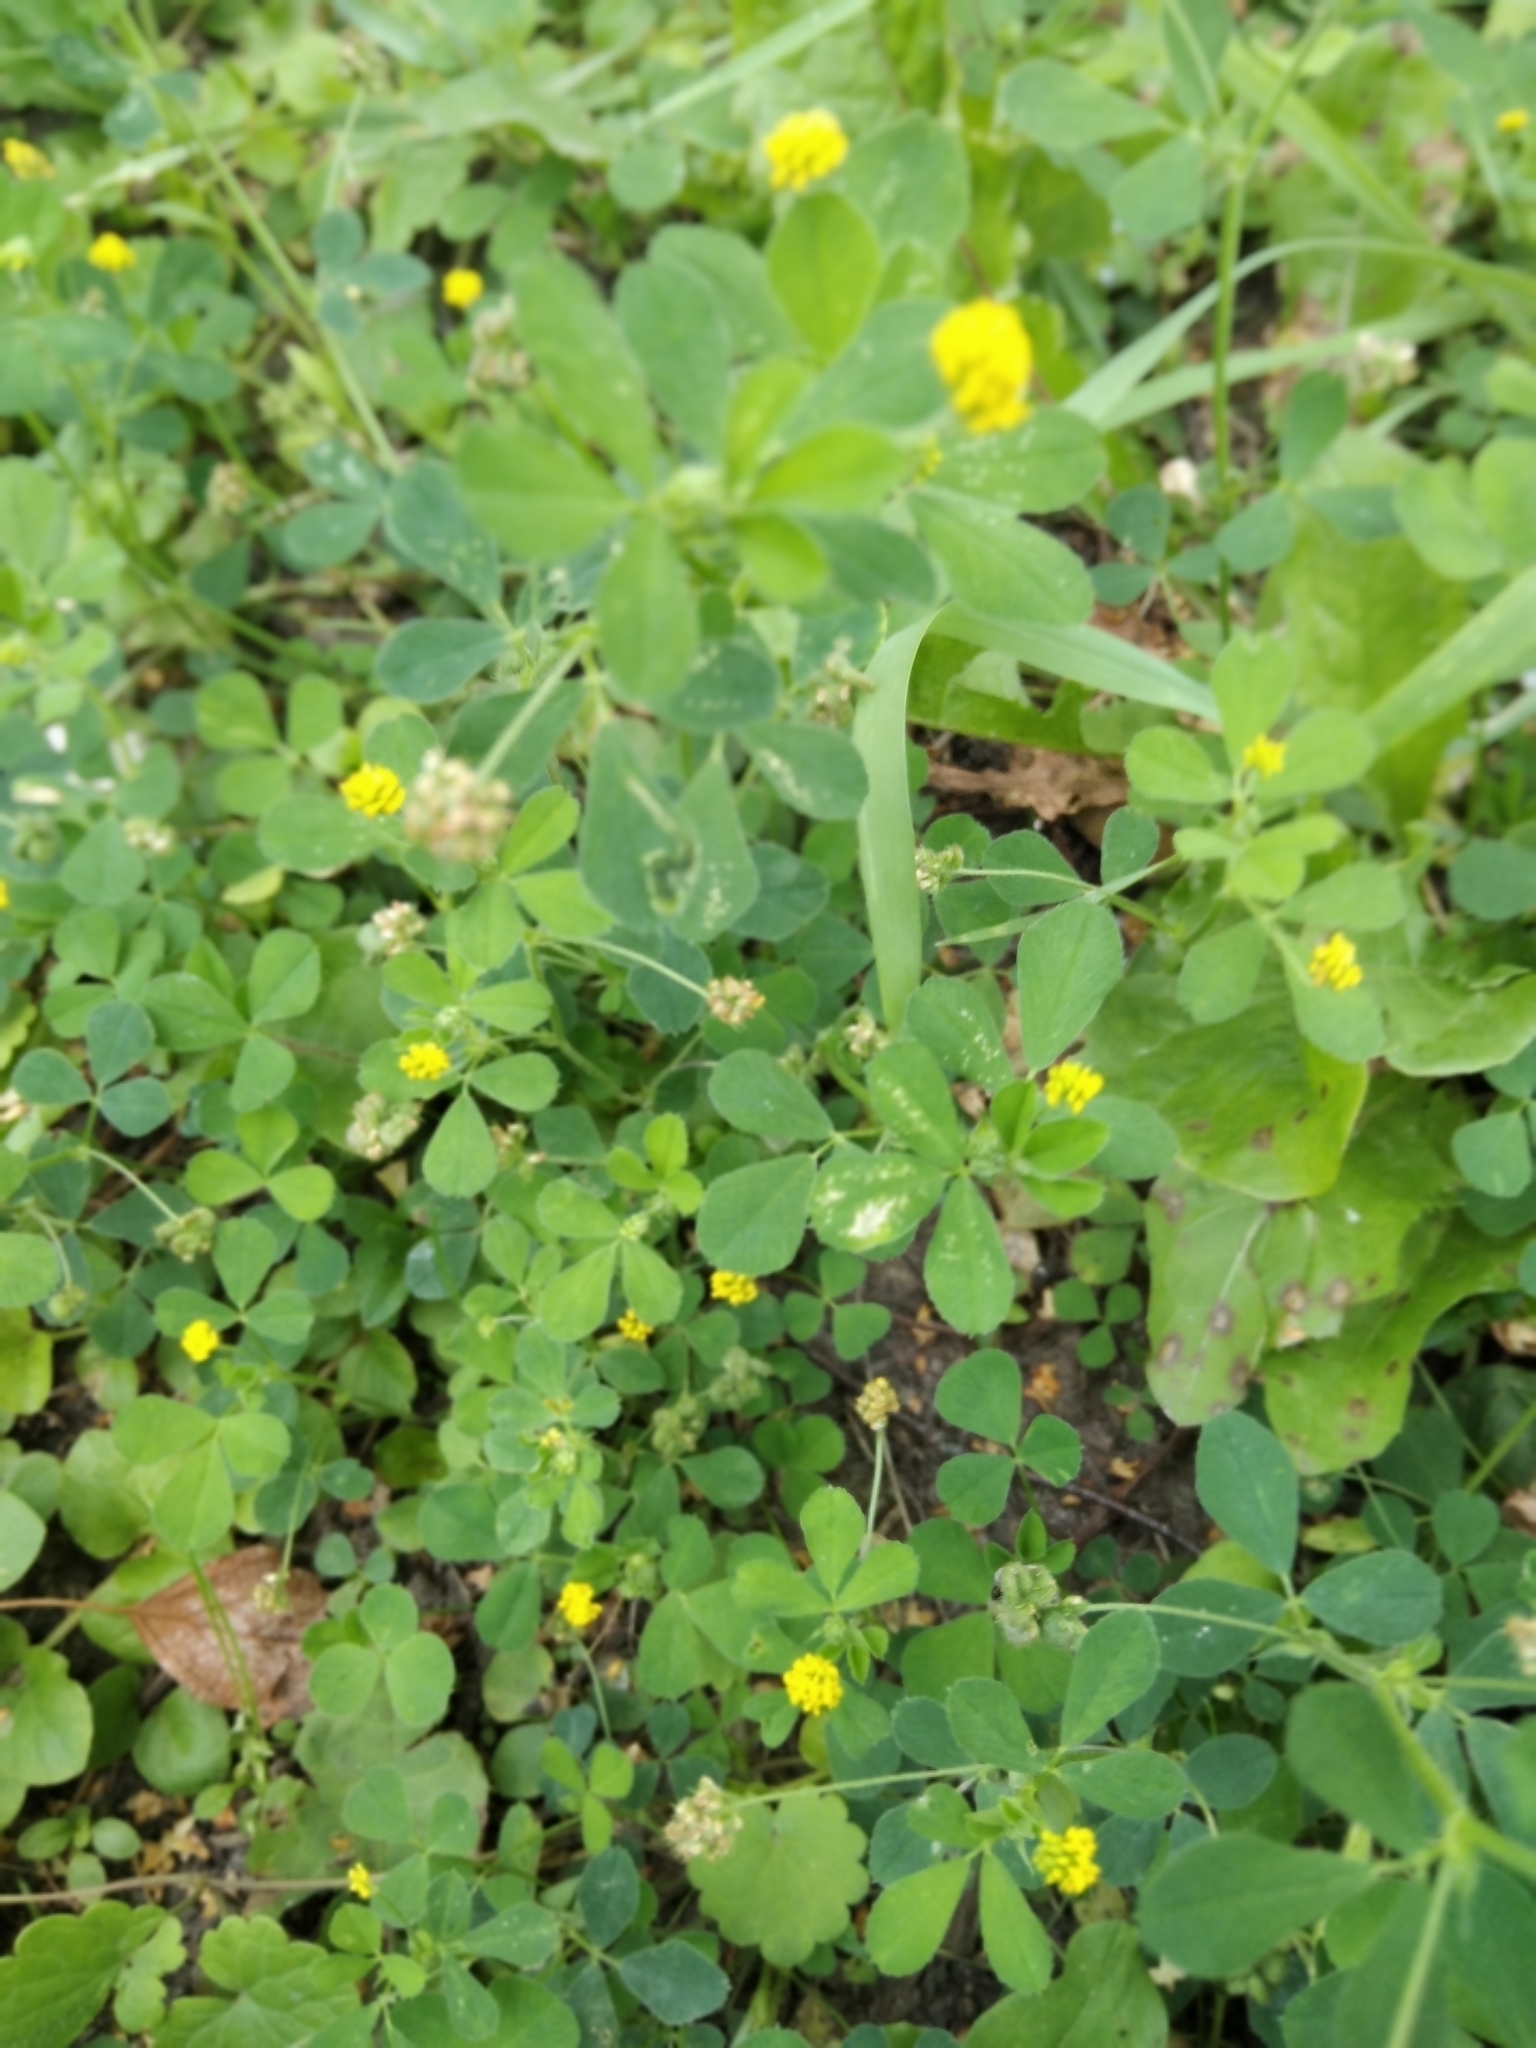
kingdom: Plantae
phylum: Tracheophyta
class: Magnoliopsida
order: Fabales
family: Fabaceae
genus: Medicago
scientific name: Medicago lupulina
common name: Black medick
